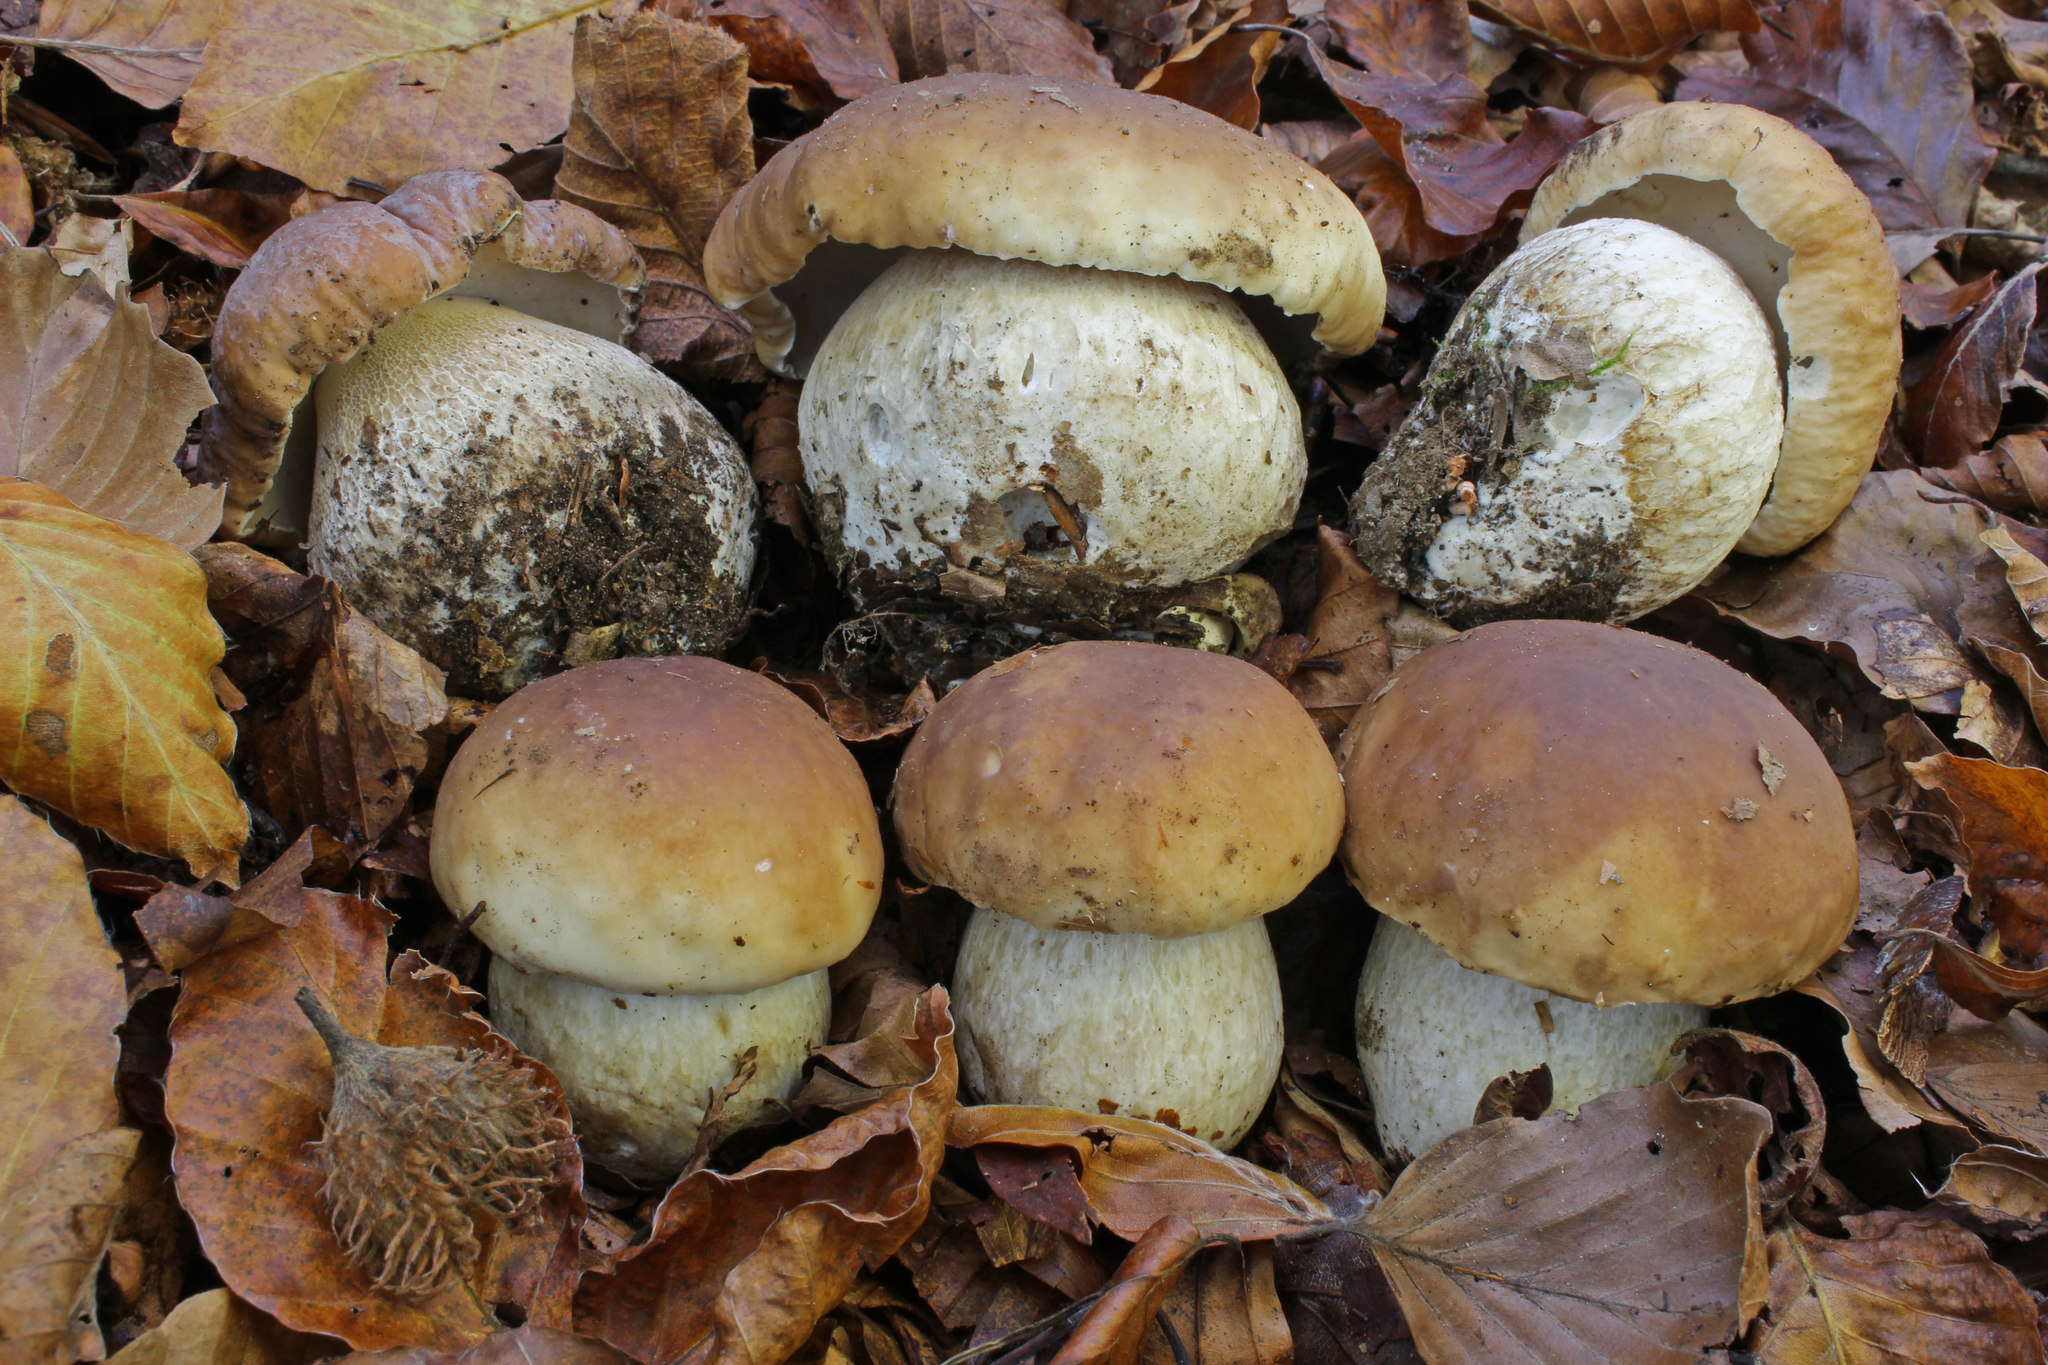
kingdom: Fungi
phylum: Basidiomycota
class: Agaricomycetes
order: Boletales
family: Boletaceae
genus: Boletus
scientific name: Boletus edulis
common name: Cep
